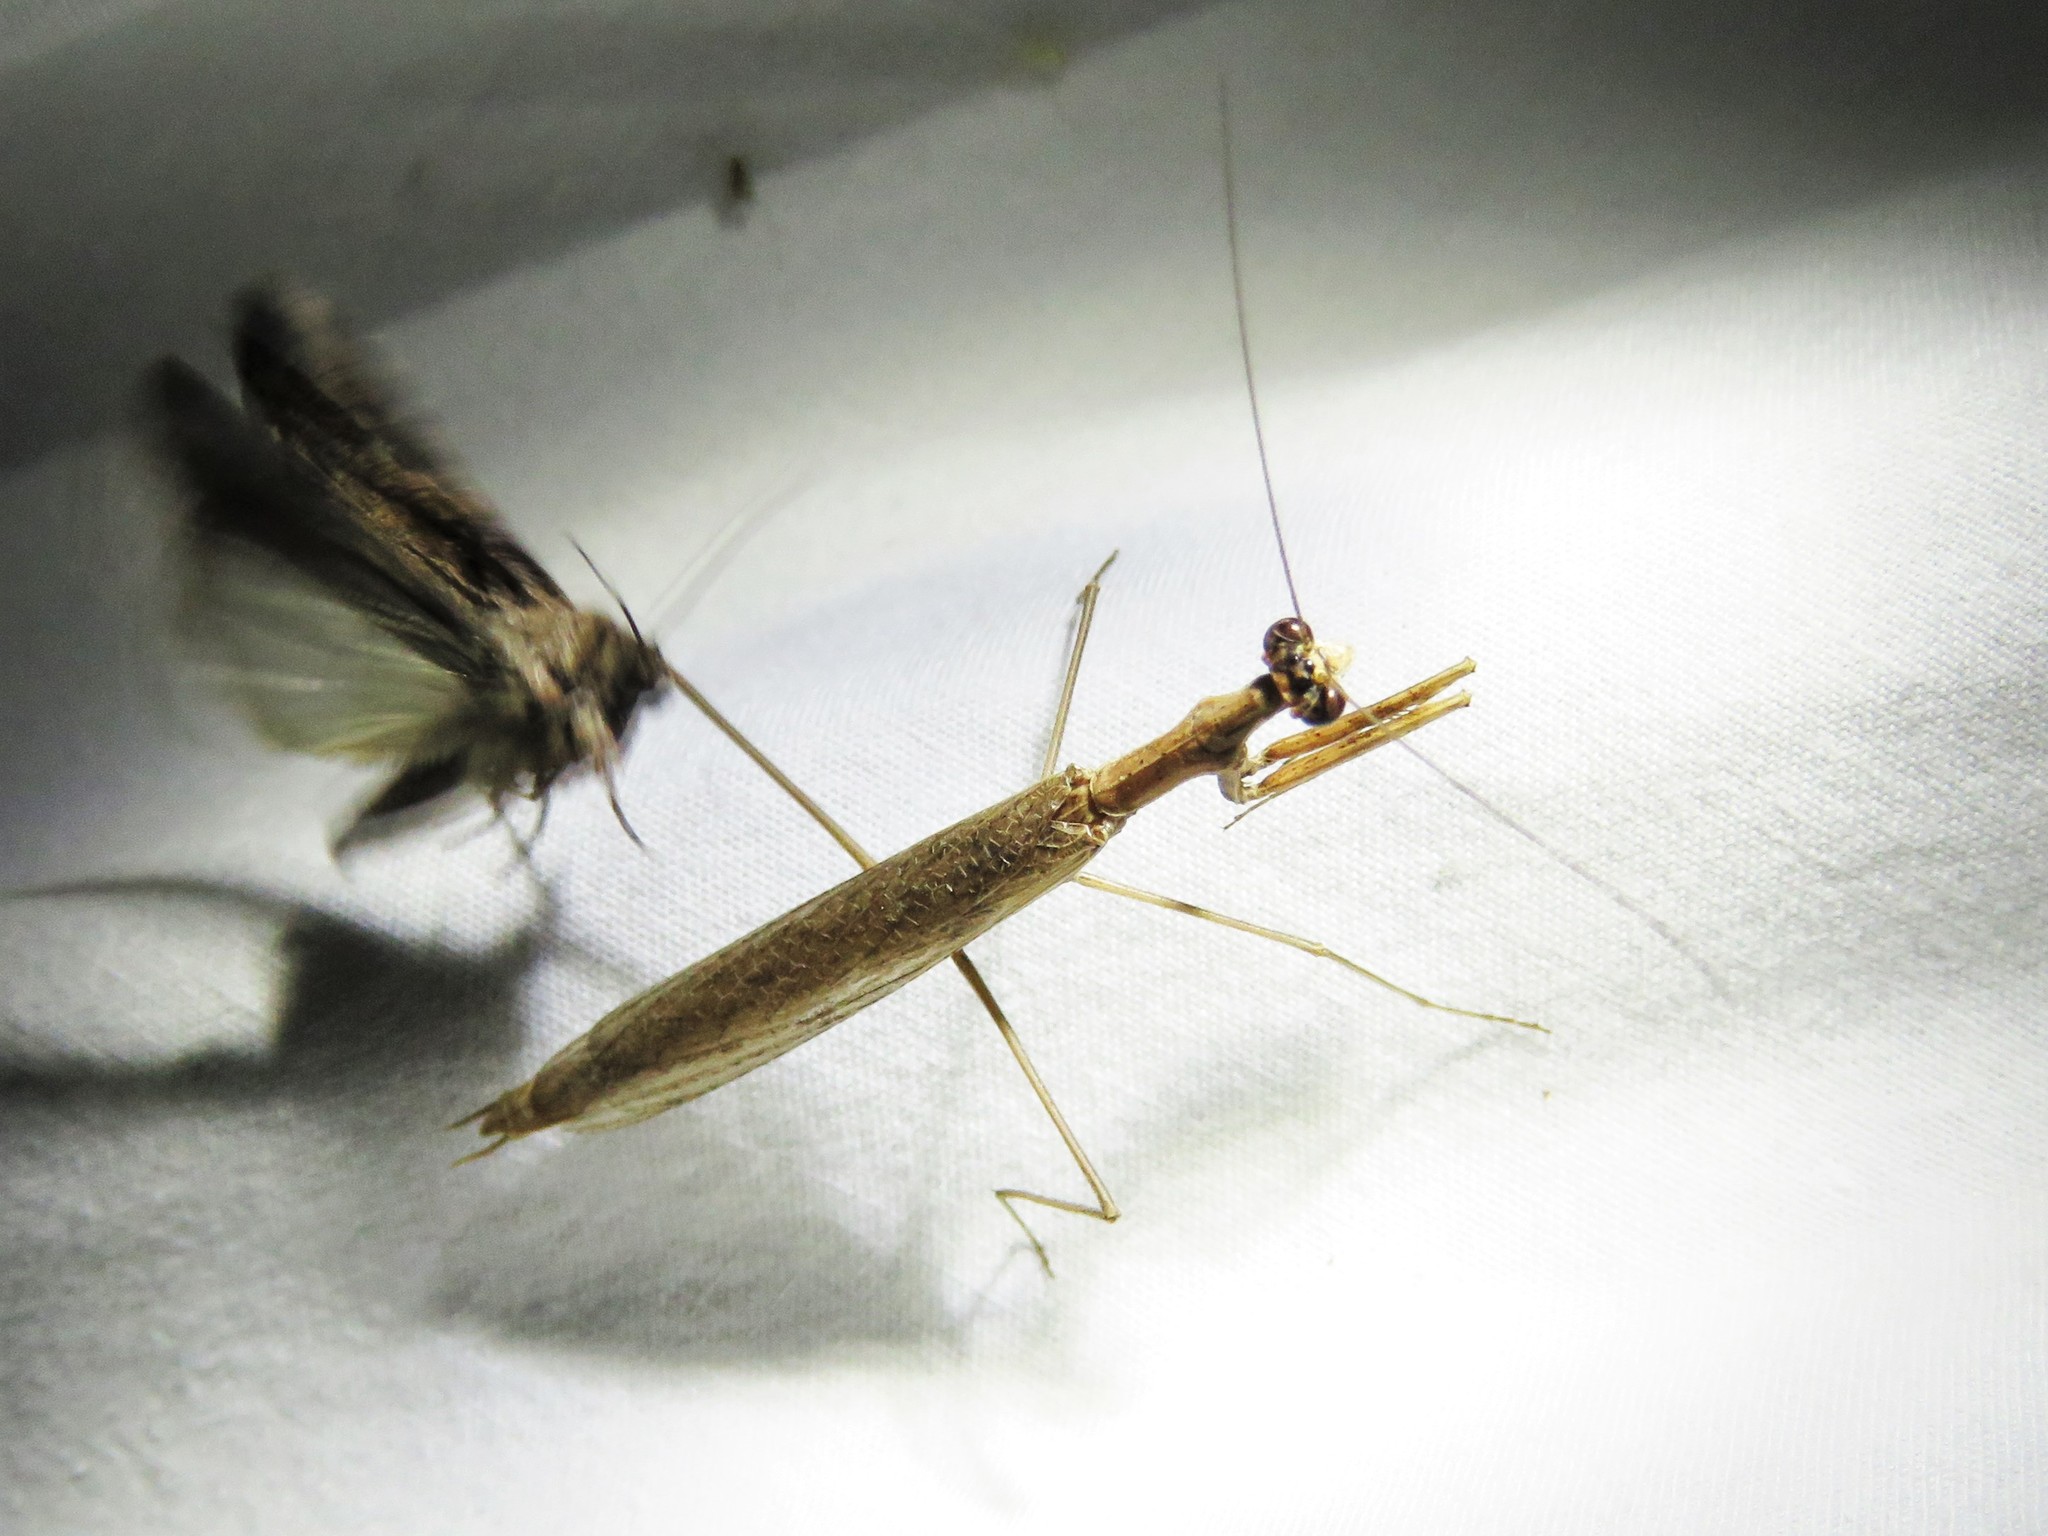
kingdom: Animalia
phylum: Arthropoda
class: Insecta
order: Mantodea
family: Thespidae
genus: Oligonicella
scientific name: Oligonicella scudderi
